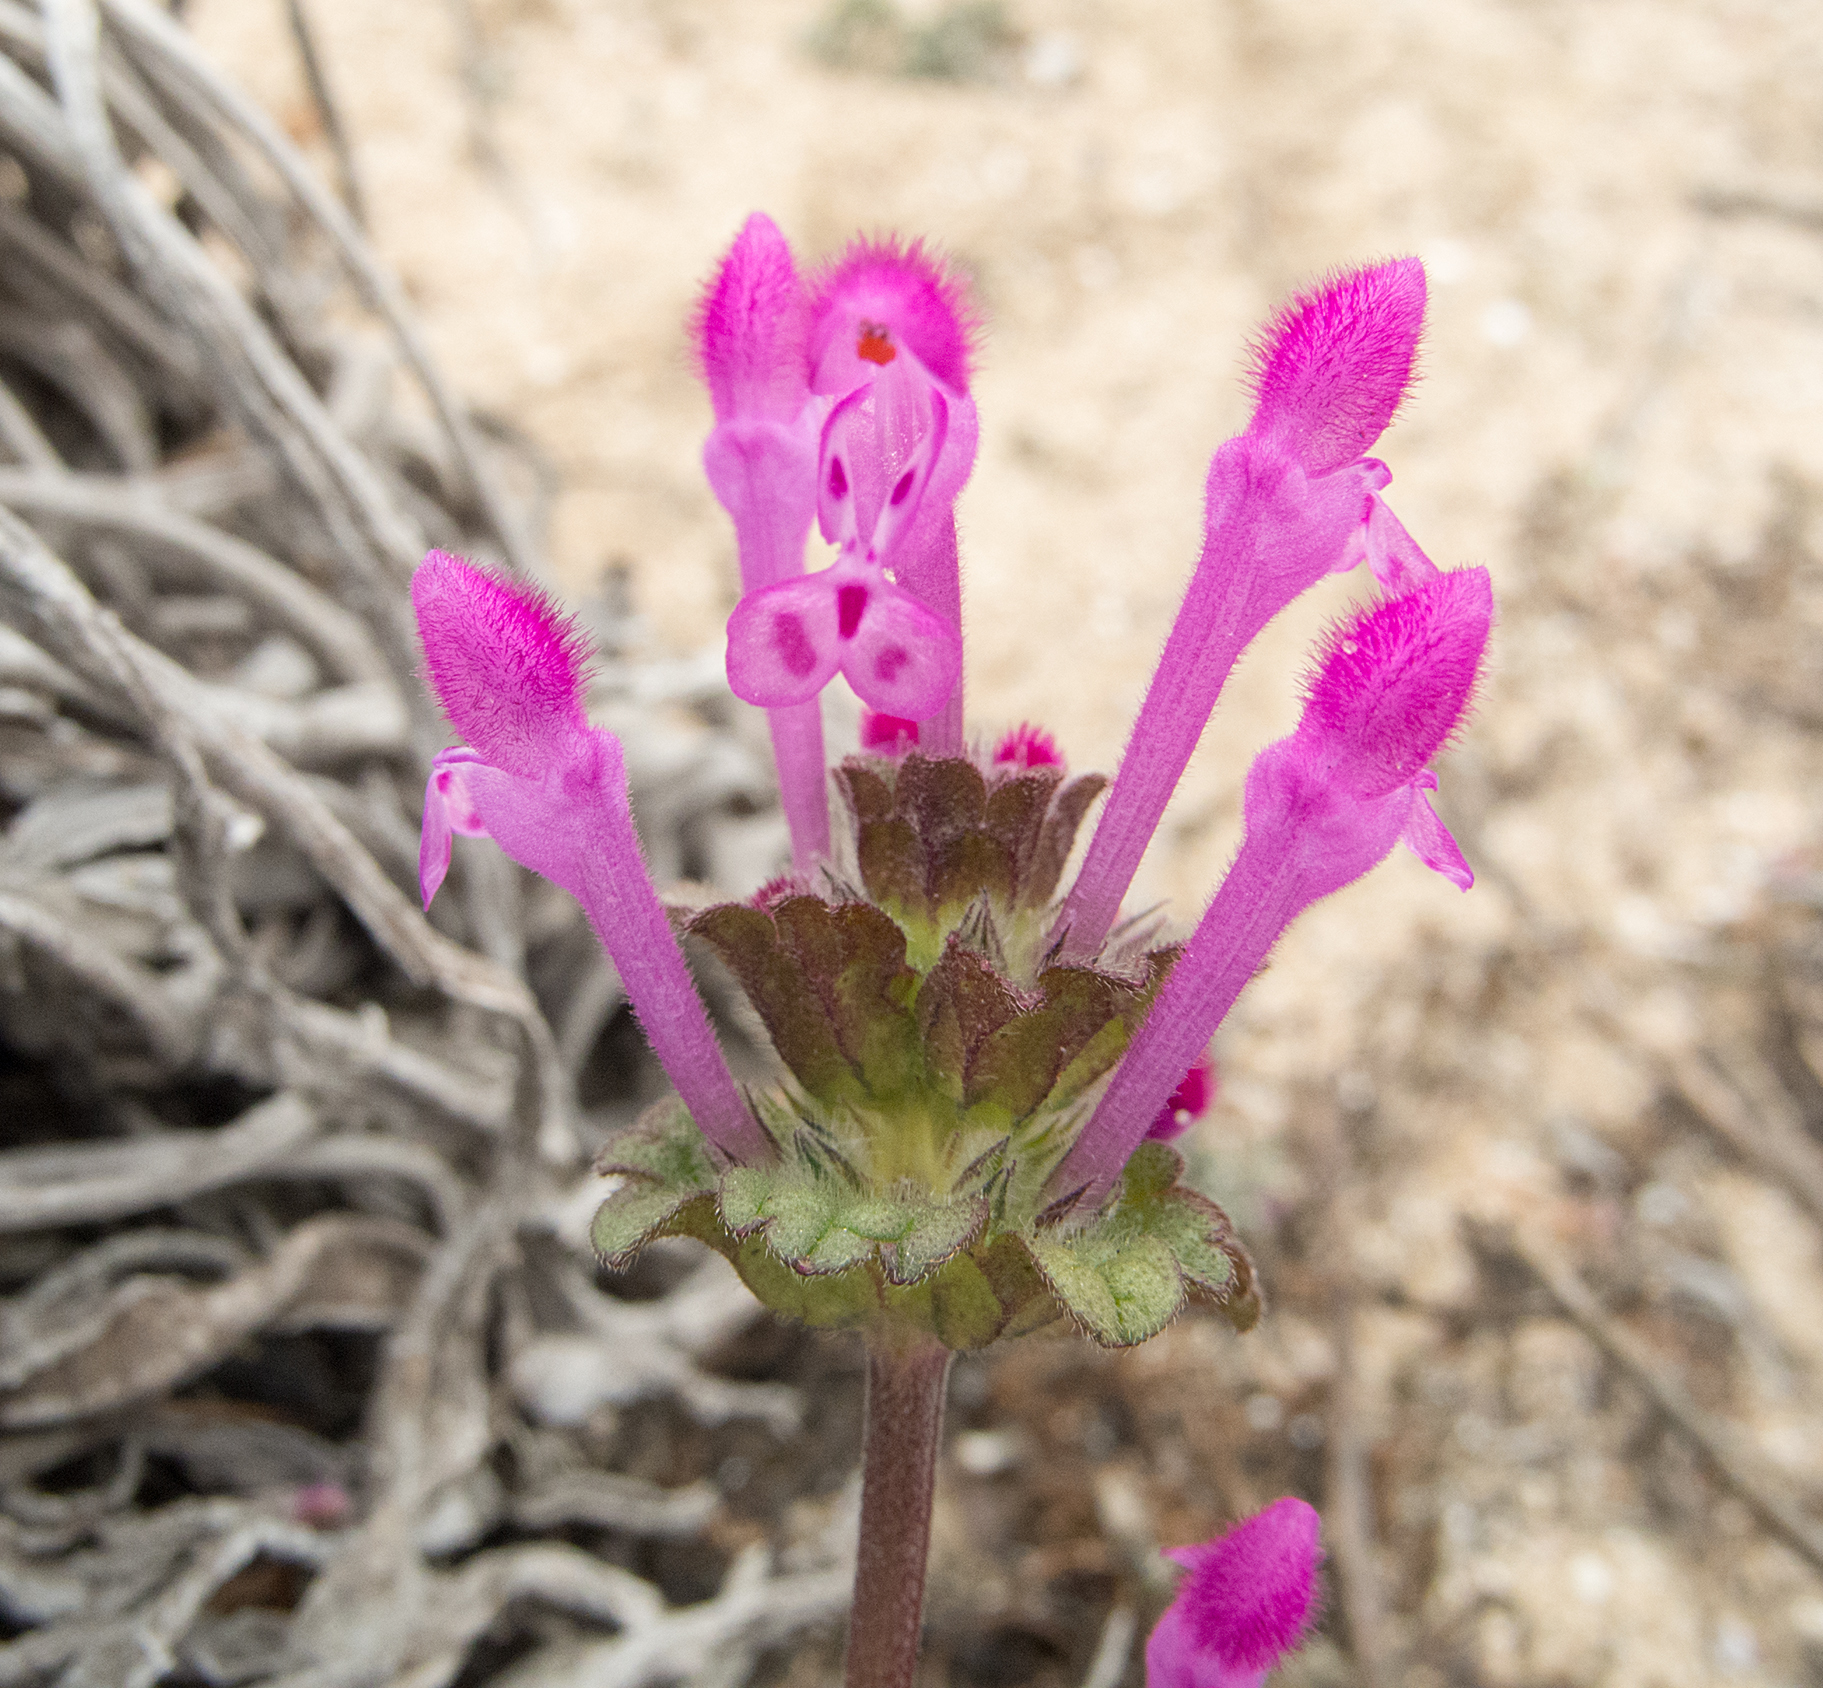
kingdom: Plantae
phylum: Tracheophyta
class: Magnoliopsida
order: Lamiales
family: Lamiaceae
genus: Lamium
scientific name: Lamium amplexicaule
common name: Henbit dead-nettle
